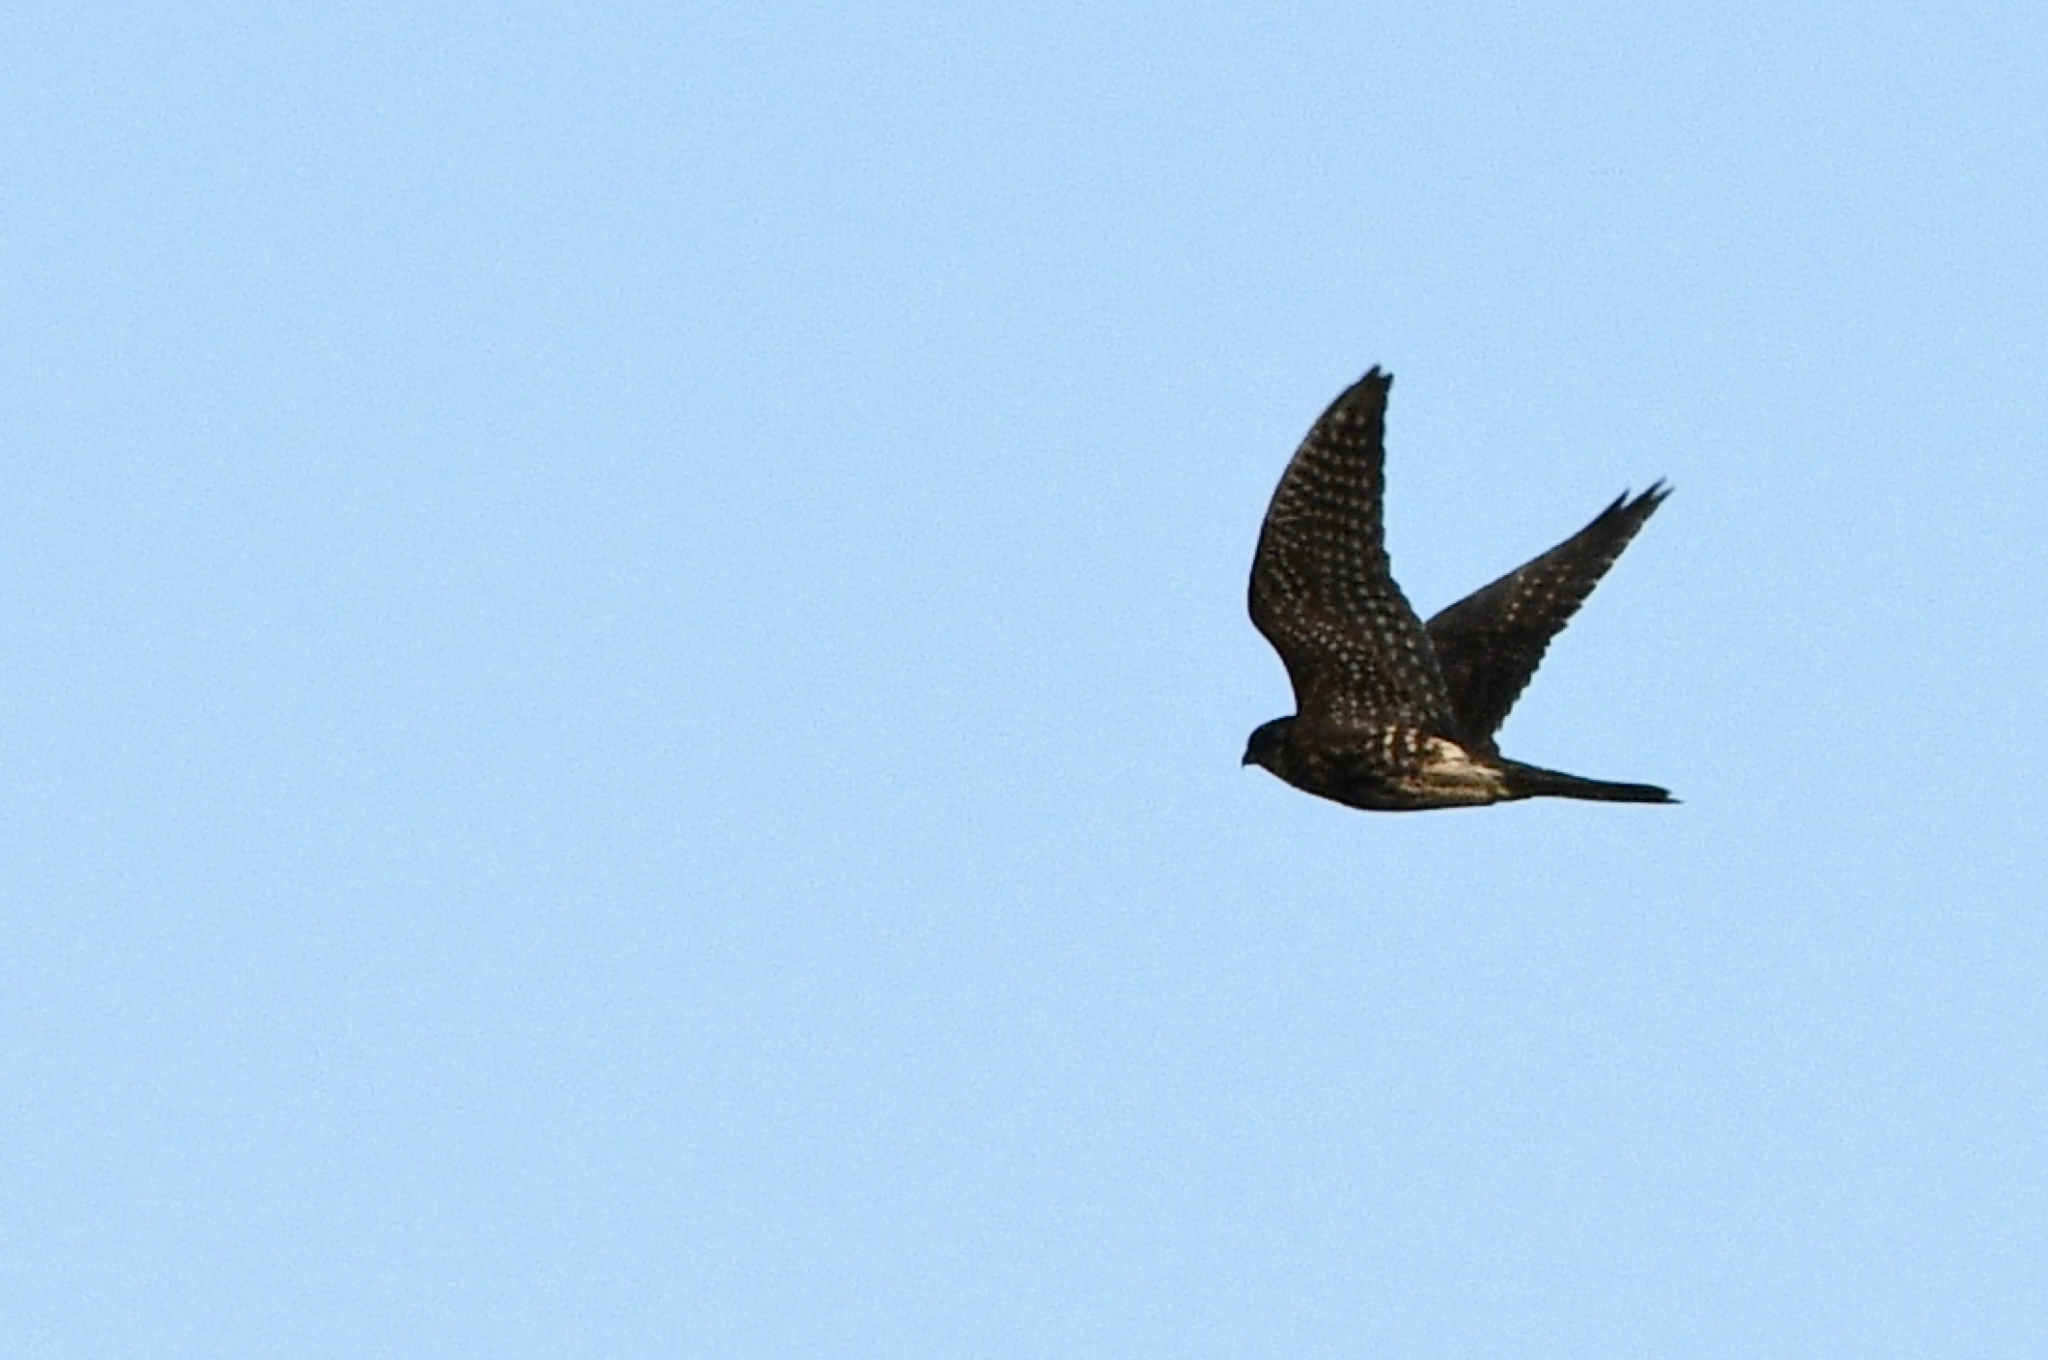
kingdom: Animalia
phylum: Chordata
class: Aves
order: Falconiformes
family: Falconidae
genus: Falco
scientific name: Falco columbarius
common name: Merlin
